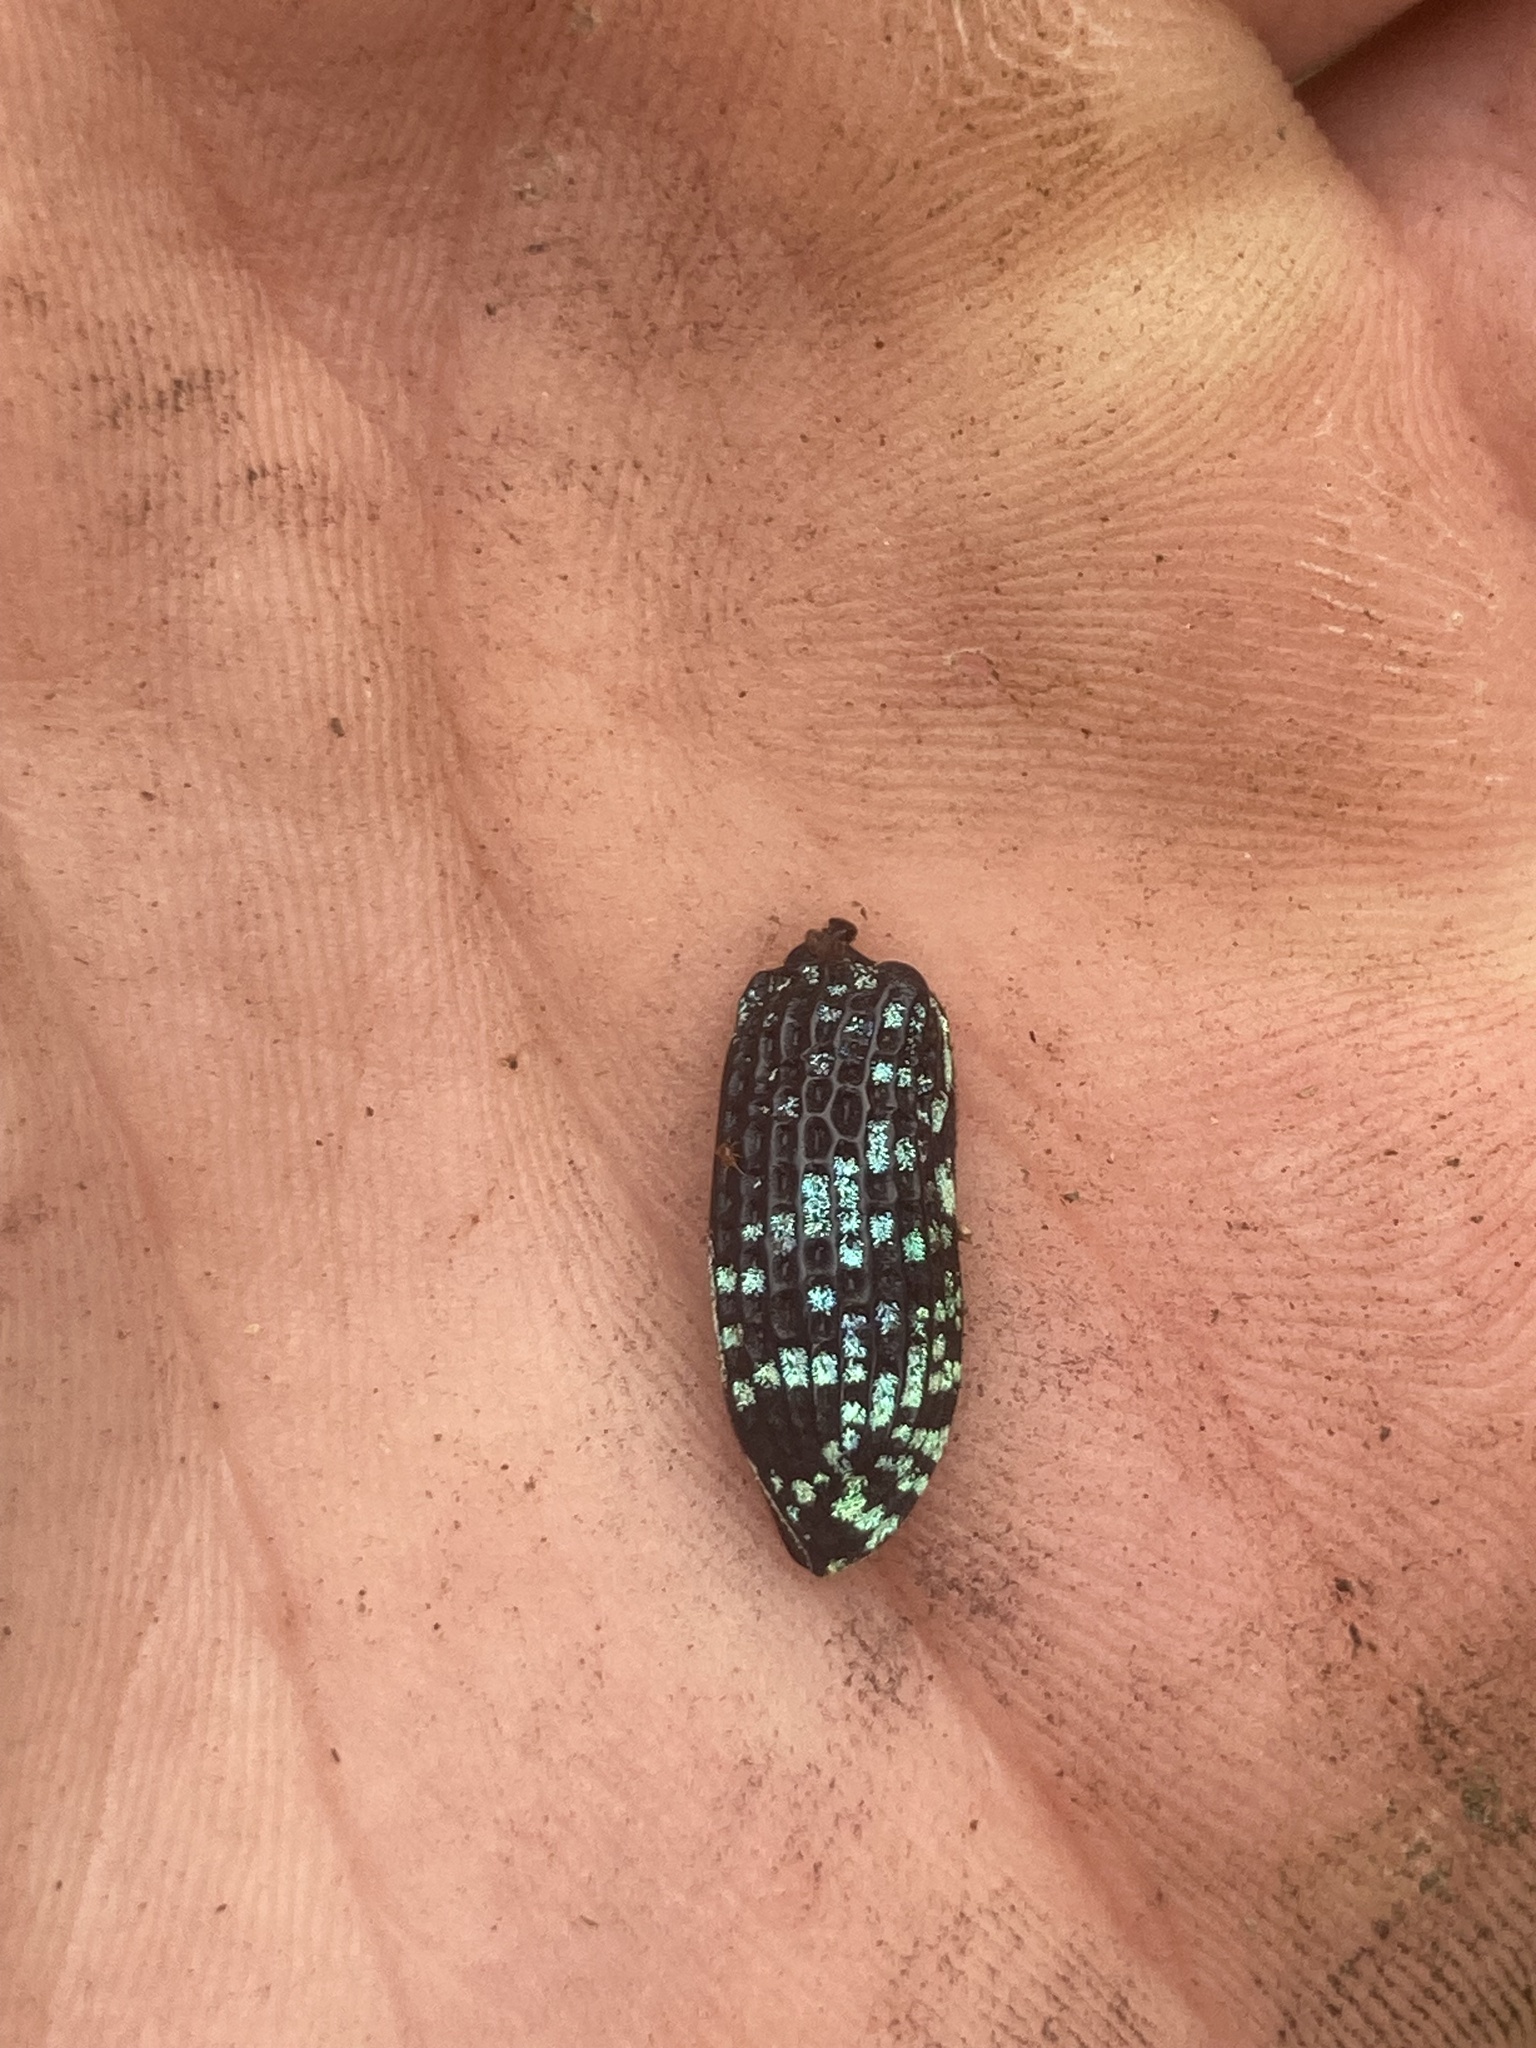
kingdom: Animalia
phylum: Arthropoda
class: Insecta
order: Coleoptera
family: Curculionidae
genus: Chrysolopus
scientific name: Chrysolopus spectabilis
